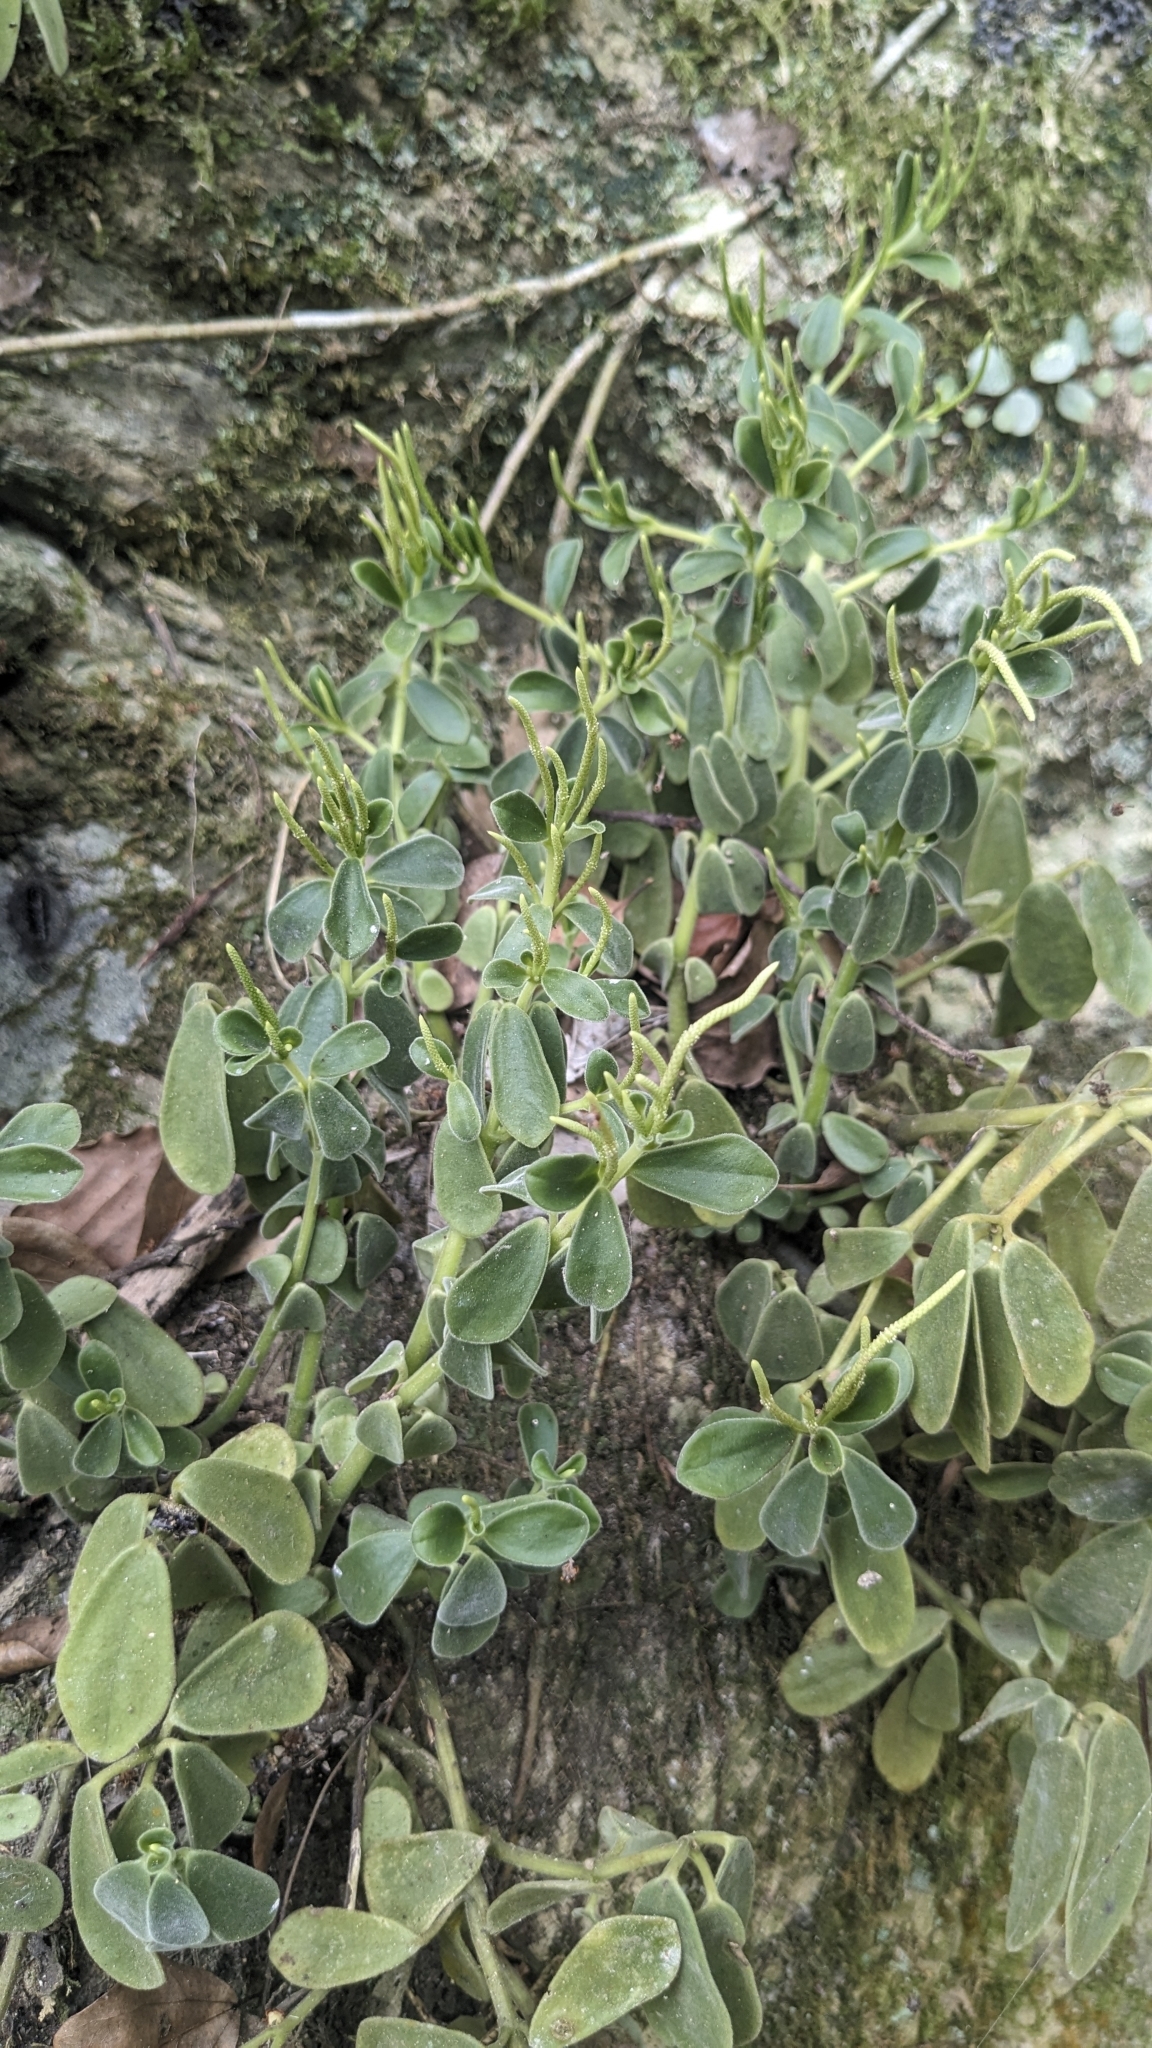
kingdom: Plantae
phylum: Tracheophyta
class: Magnoliopsida
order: Piperales
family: Piperaceae
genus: Peperomia
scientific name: Peperomia japonica
